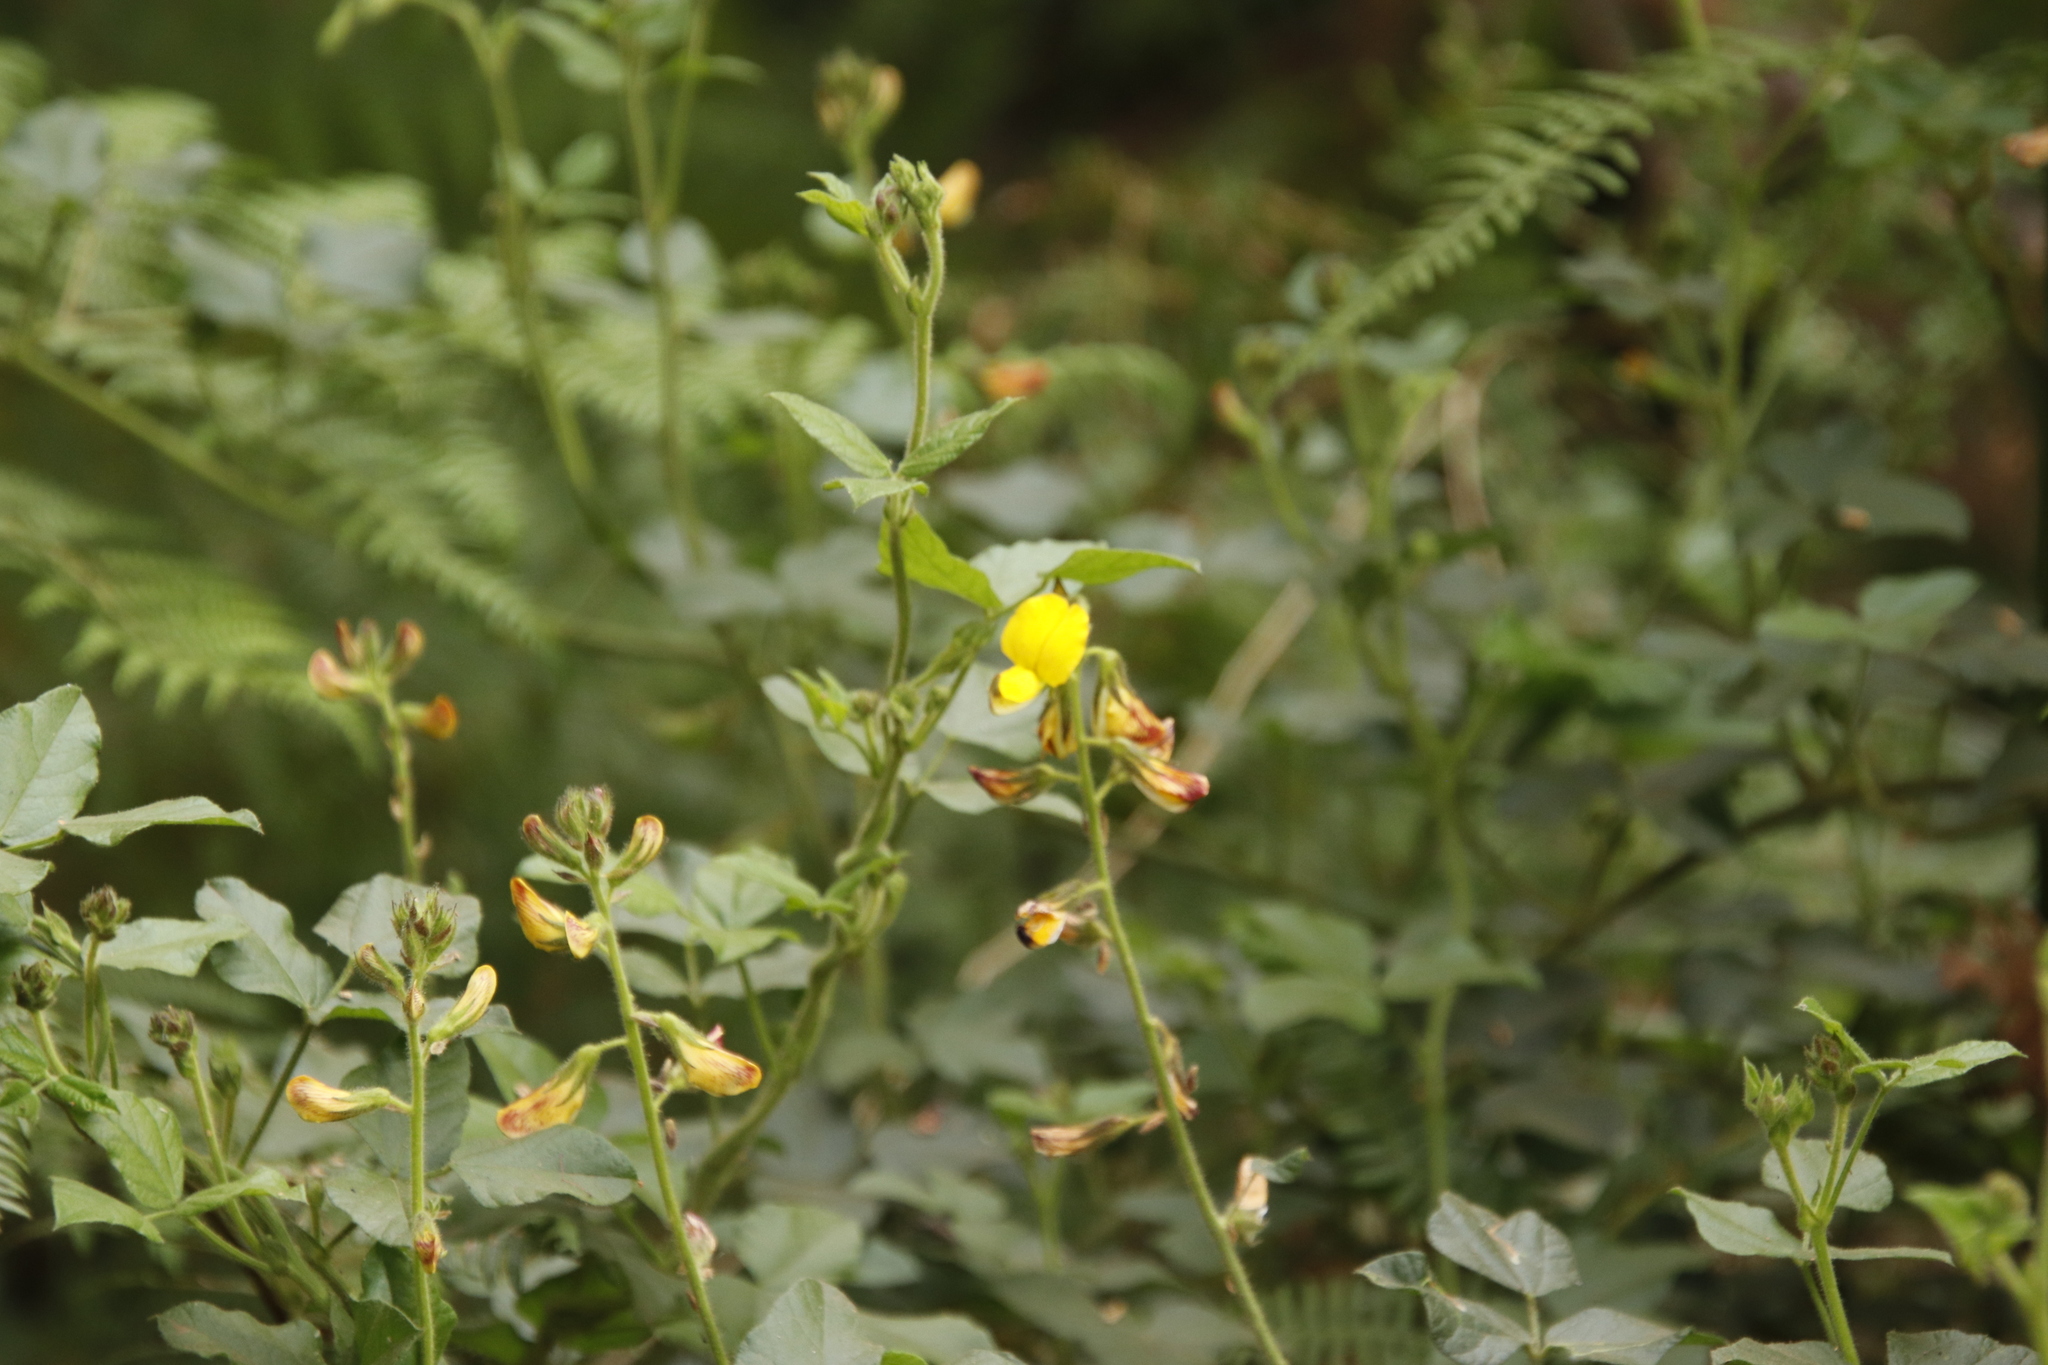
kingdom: Plantae
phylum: Tracheophyta
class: Magnoliopsida
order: Fabales
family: Fabaceae
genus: Bolusafra
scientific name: Bolusafra bituminosa
